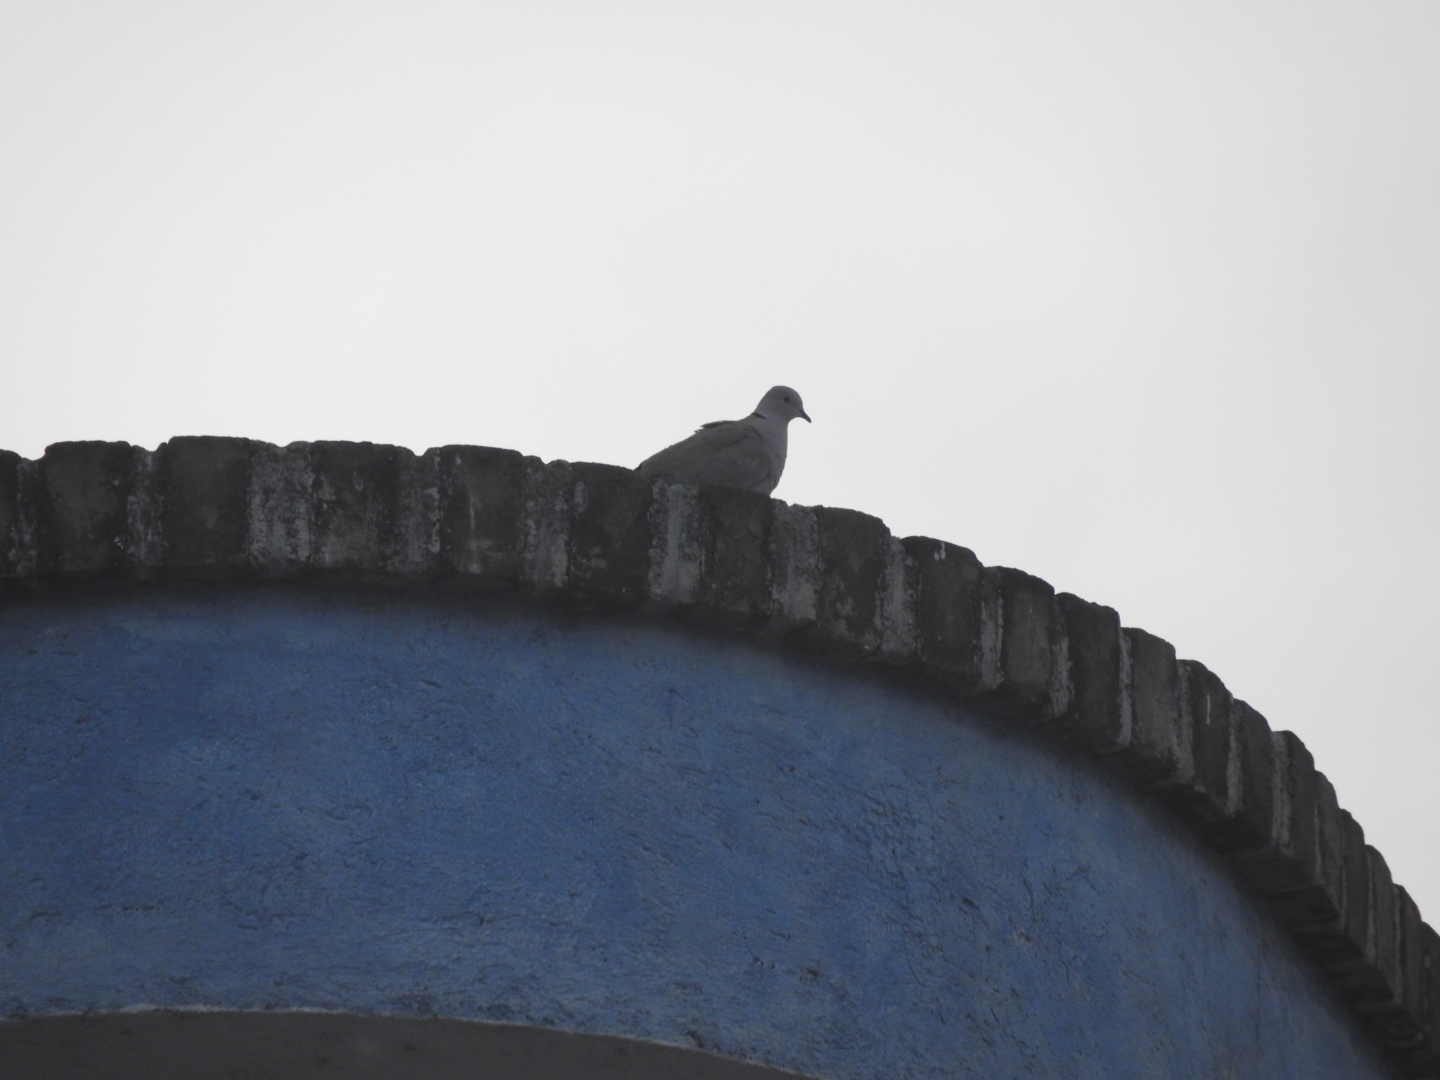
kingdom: Animalia
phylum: Chordata
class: Aves
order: Columbiformes
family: Columbidae
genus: Streptopelia
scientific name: Streptopelia decaocto
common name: Eurasian collared dove
